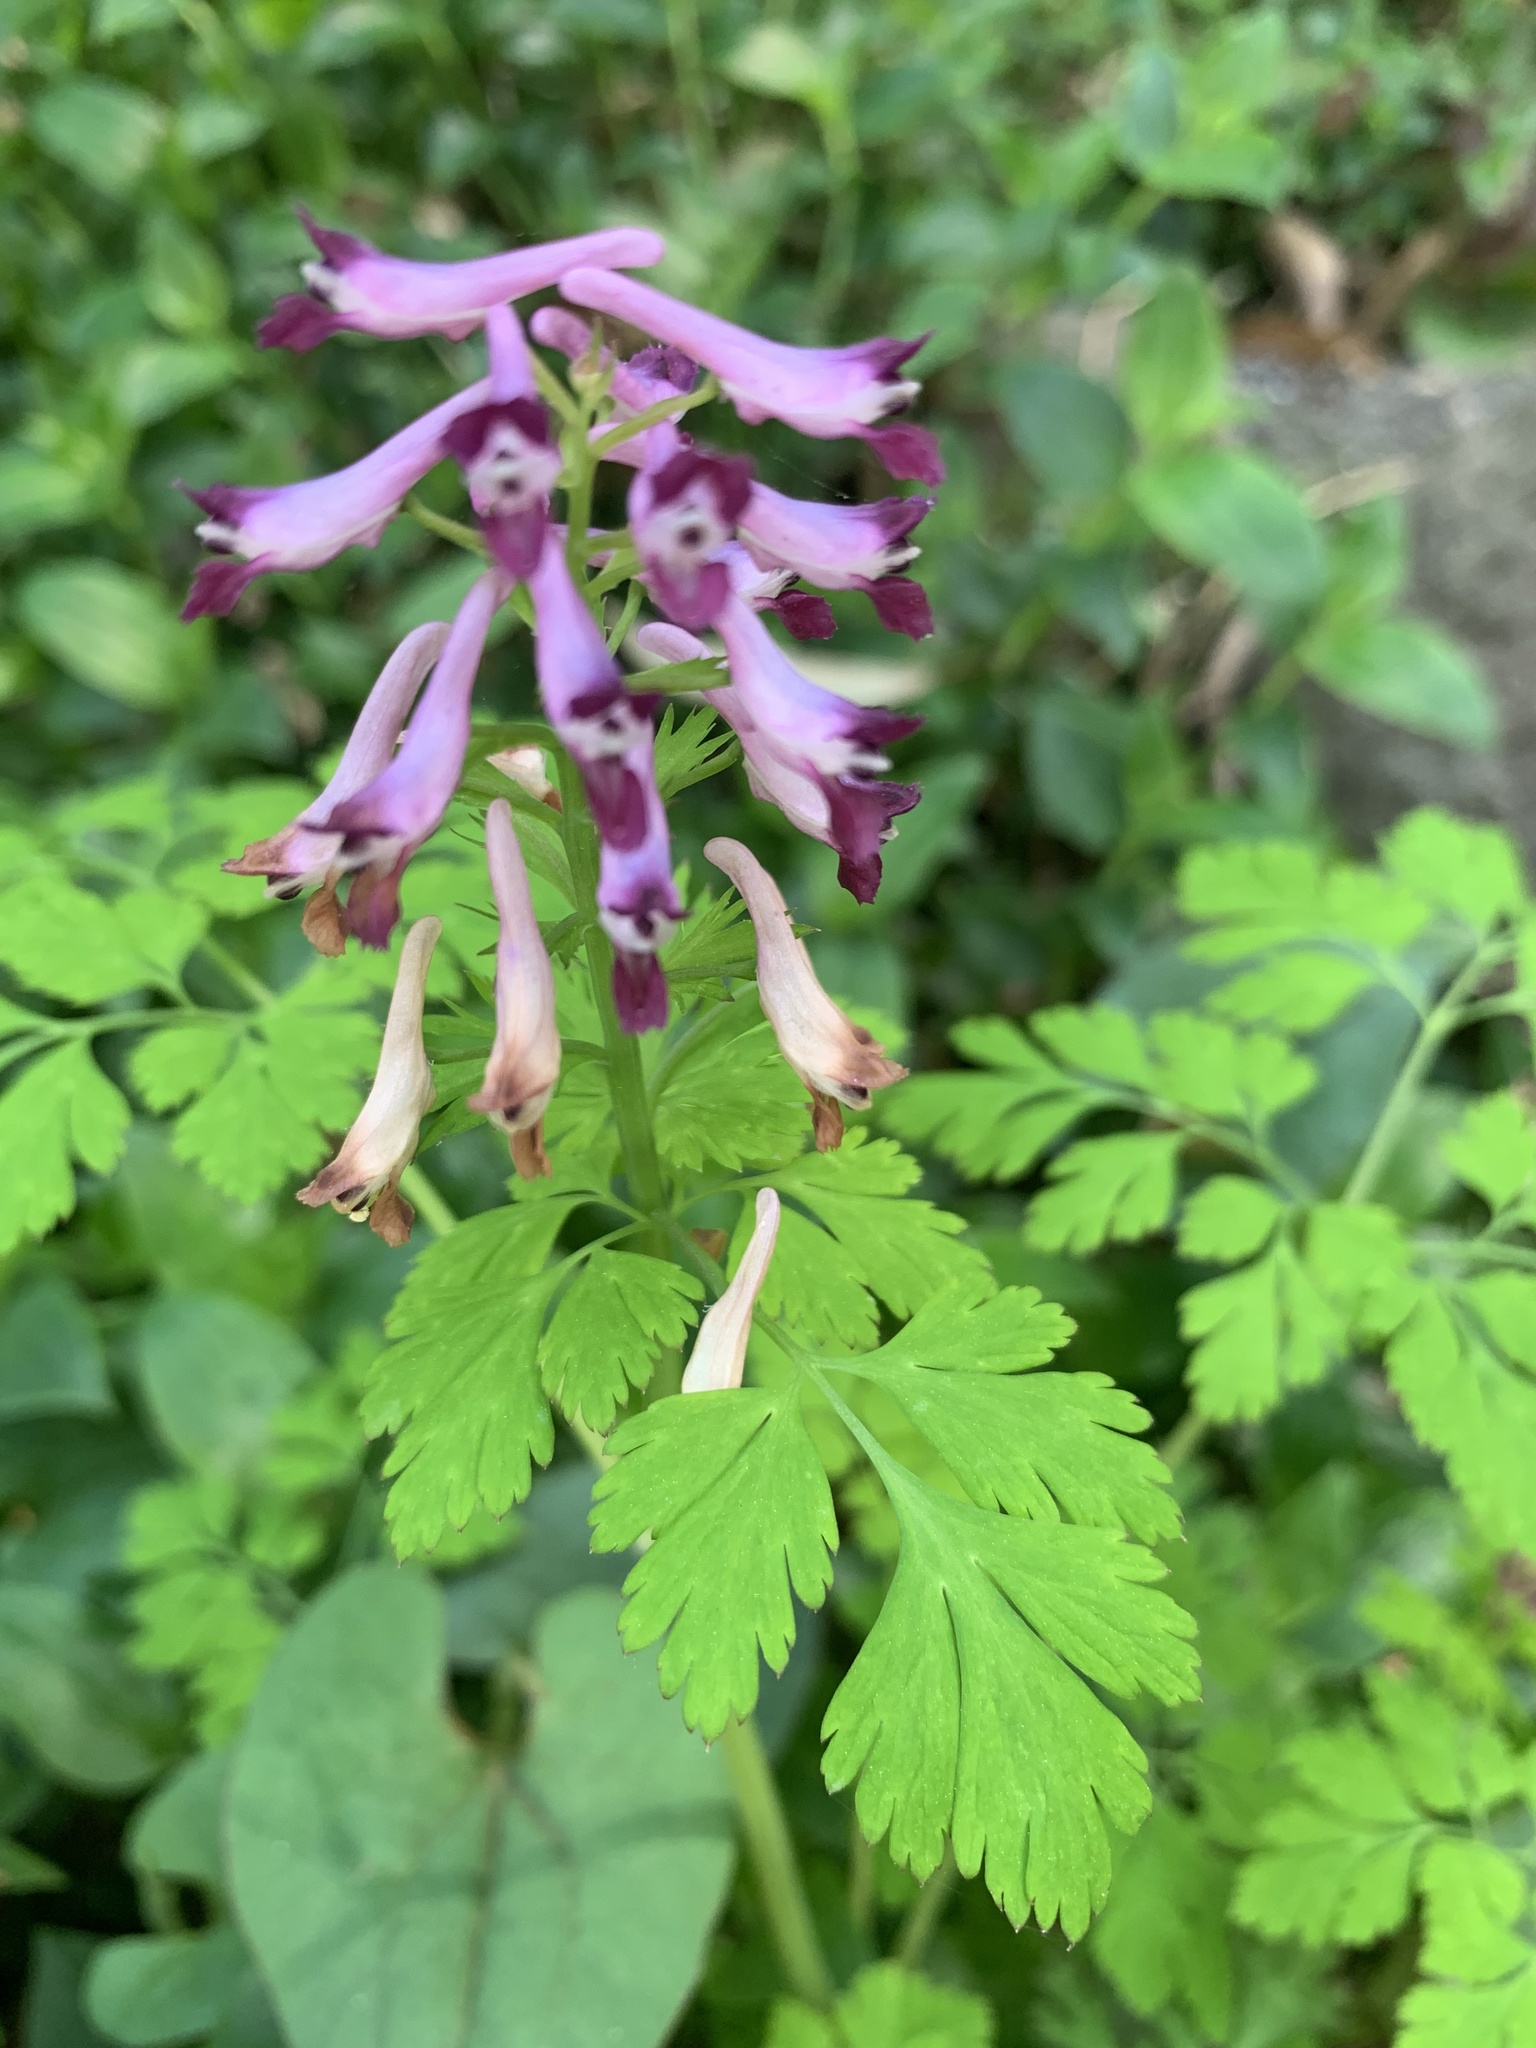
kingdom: Plantae
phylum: Tracheophyta
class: Magnoliopsida
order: Ranunculales
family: Papaveraceae
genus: Corydalis
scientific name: Corydalis incisa
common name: Incised fumewort
